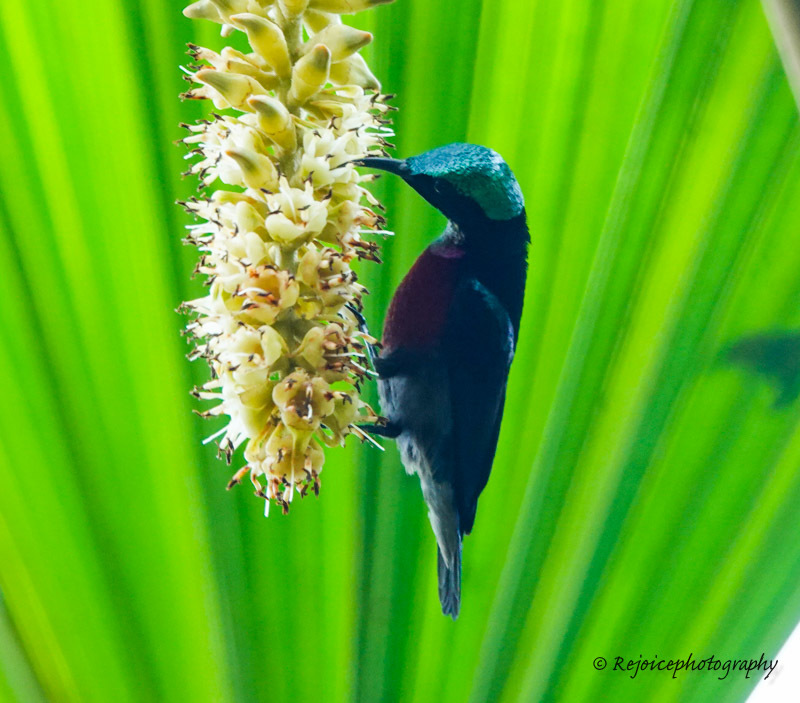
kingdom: Animalia
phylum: Chordata
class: Aves
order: Passeriformes
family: Nectariniidae
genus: Leptocoma
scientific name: Leptocoma brasiliana
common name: Van hasselt's sunbird
